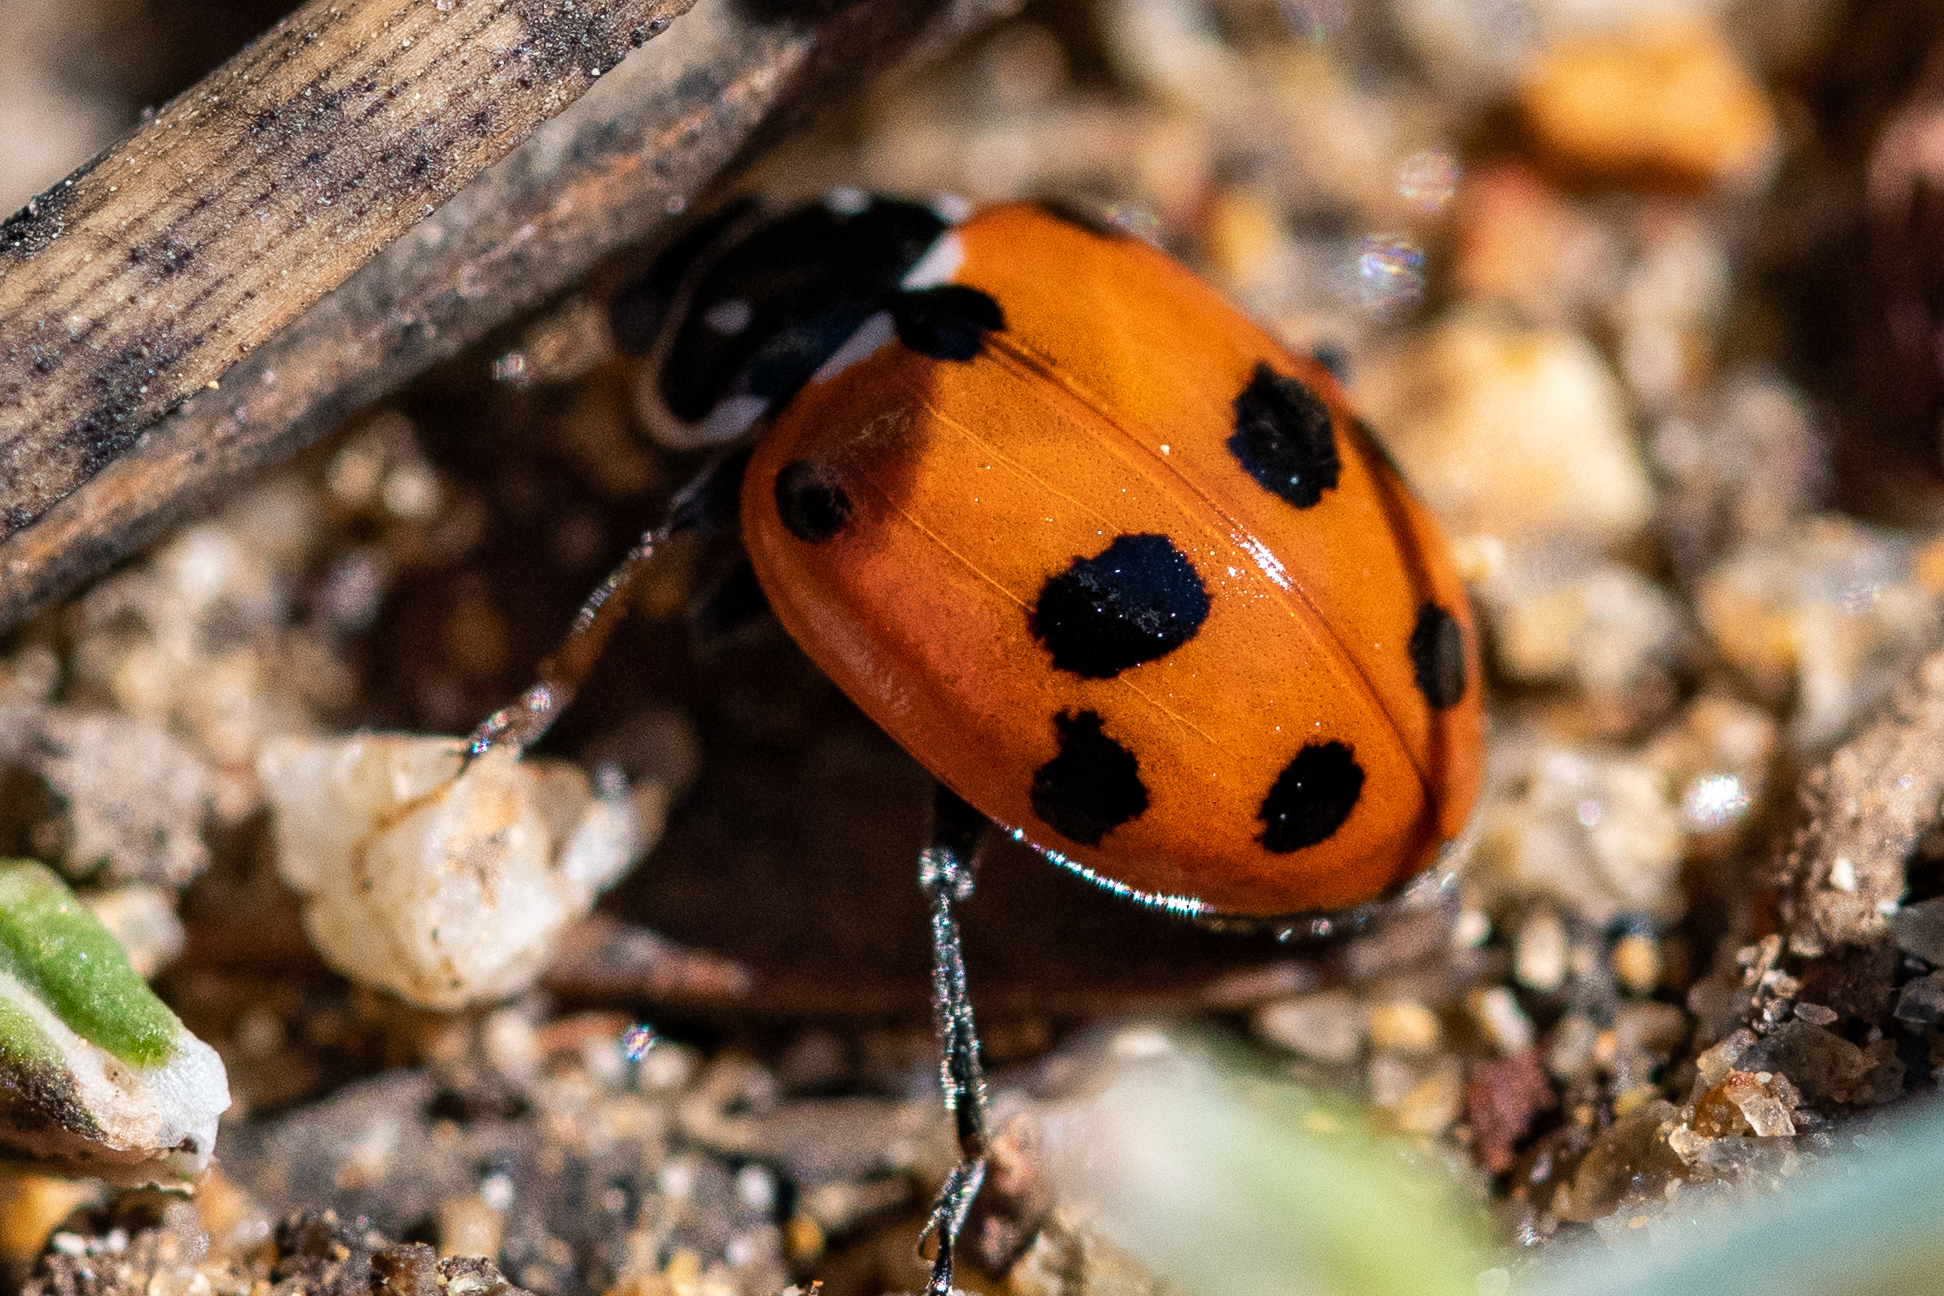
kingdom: Animalia
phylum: Arthropoda
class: Insecta
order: Coleoptera
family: Coccinellidae
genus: Hippodamia
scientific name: Hippodamia variegata
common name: Ladybird beetle
